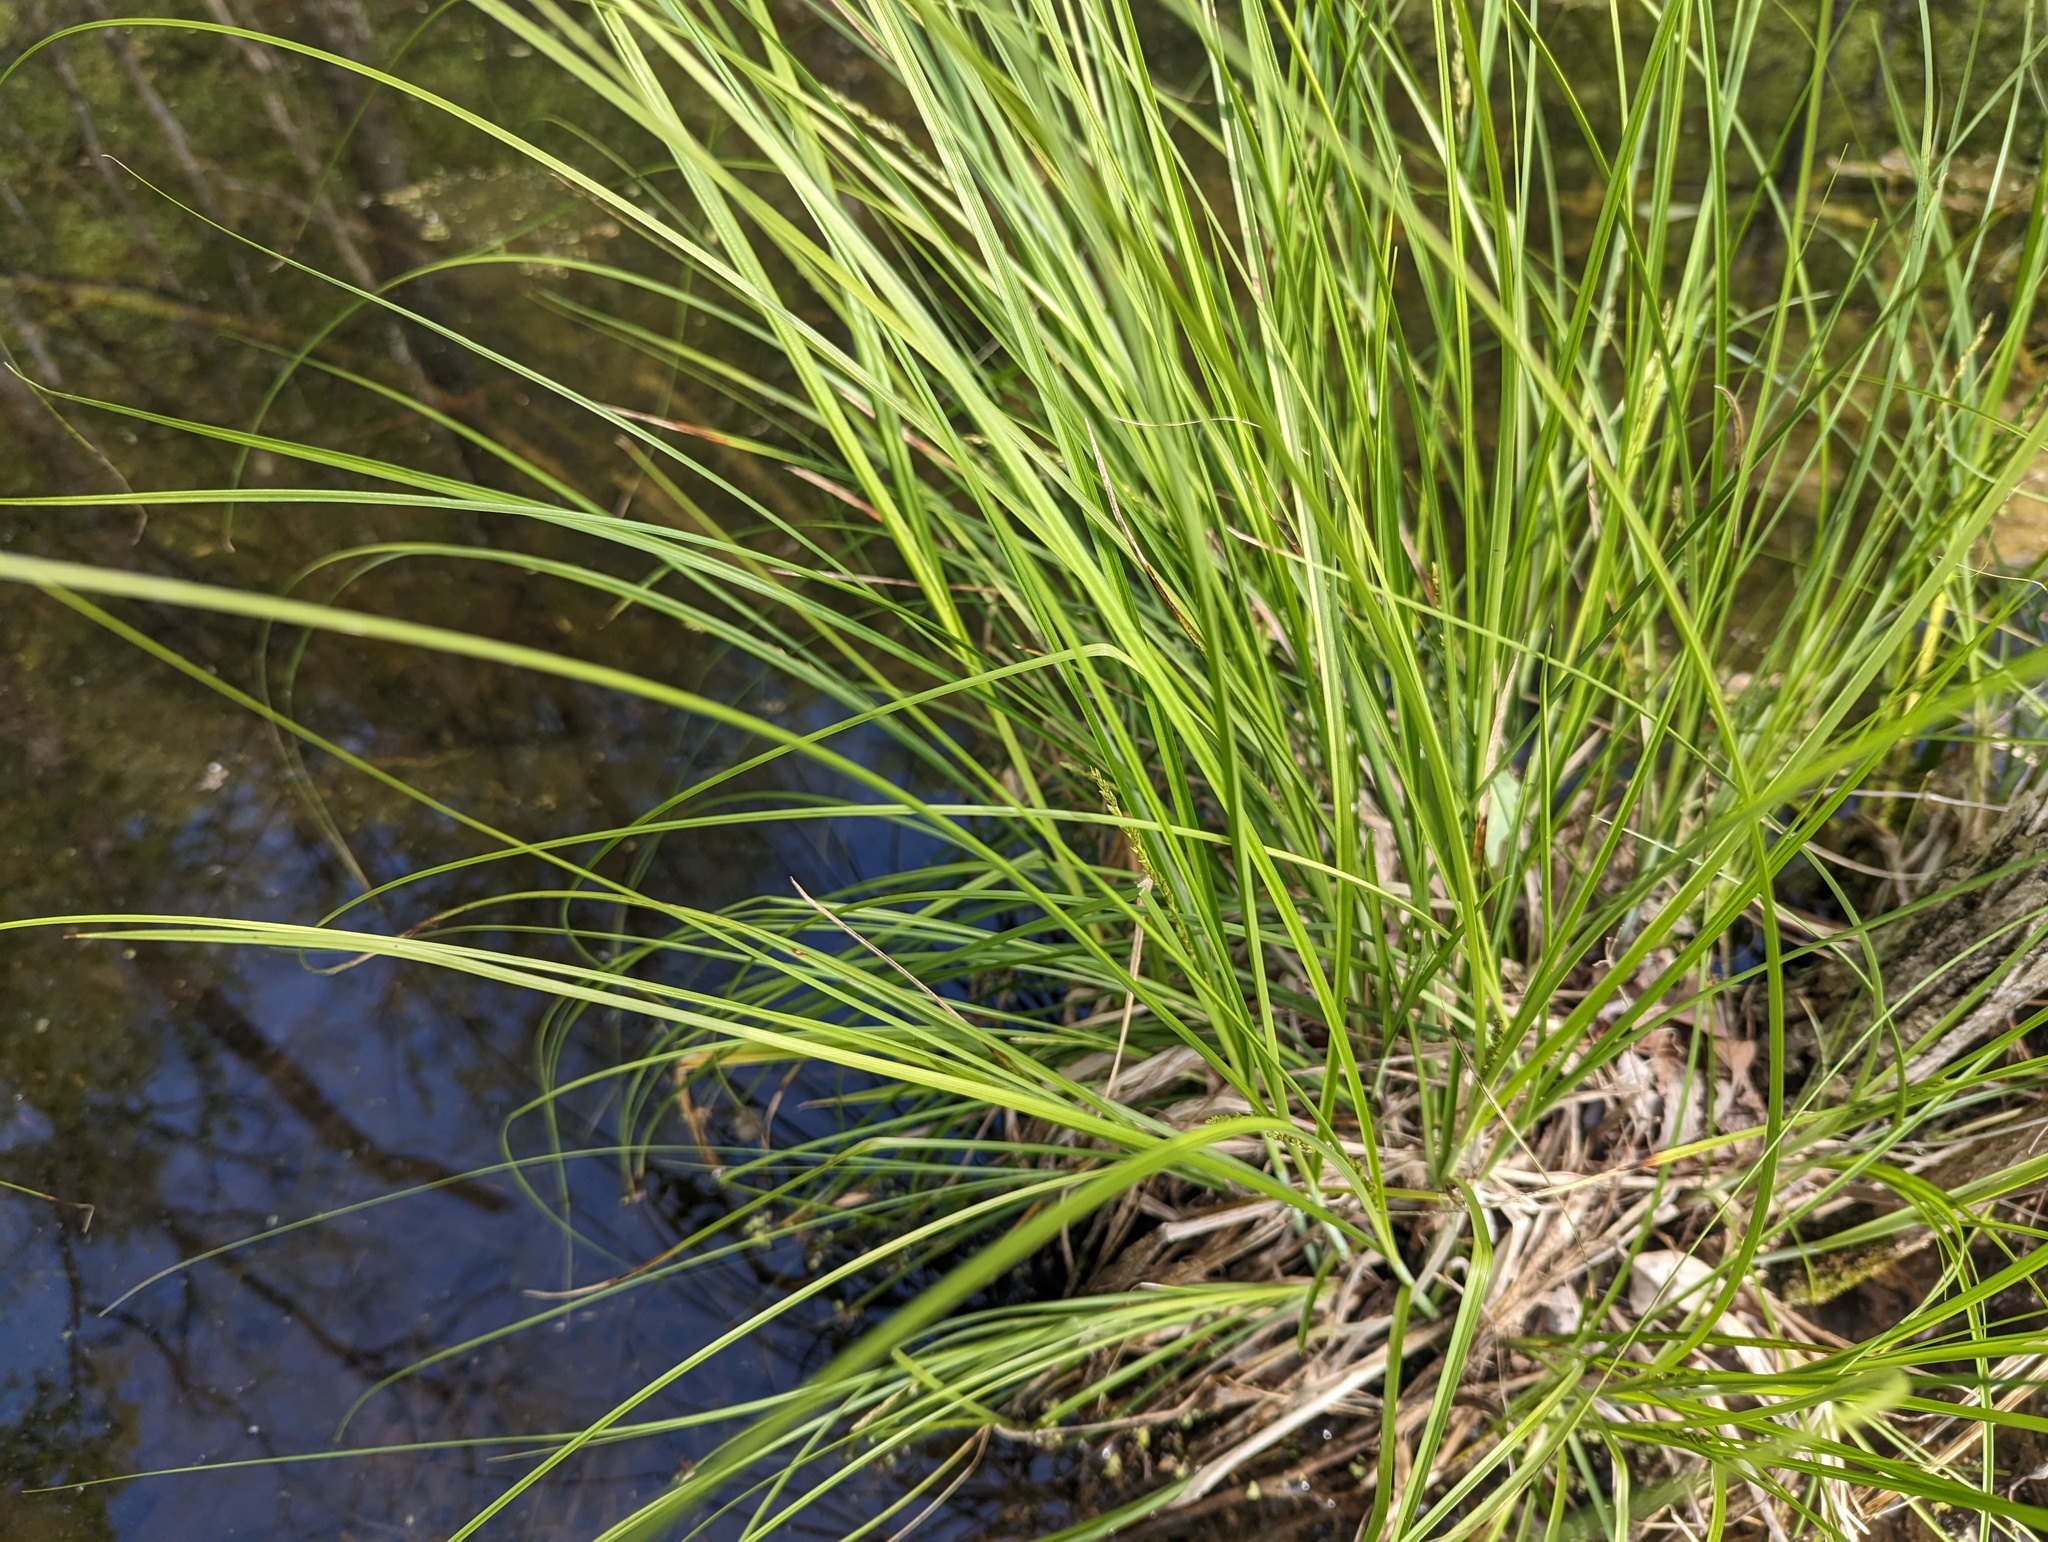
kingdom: Plantae
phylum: Tracheophyta
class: Liliopsida
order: Poales
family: Cyperaceae
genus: Carex
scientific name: Carex decomposita
